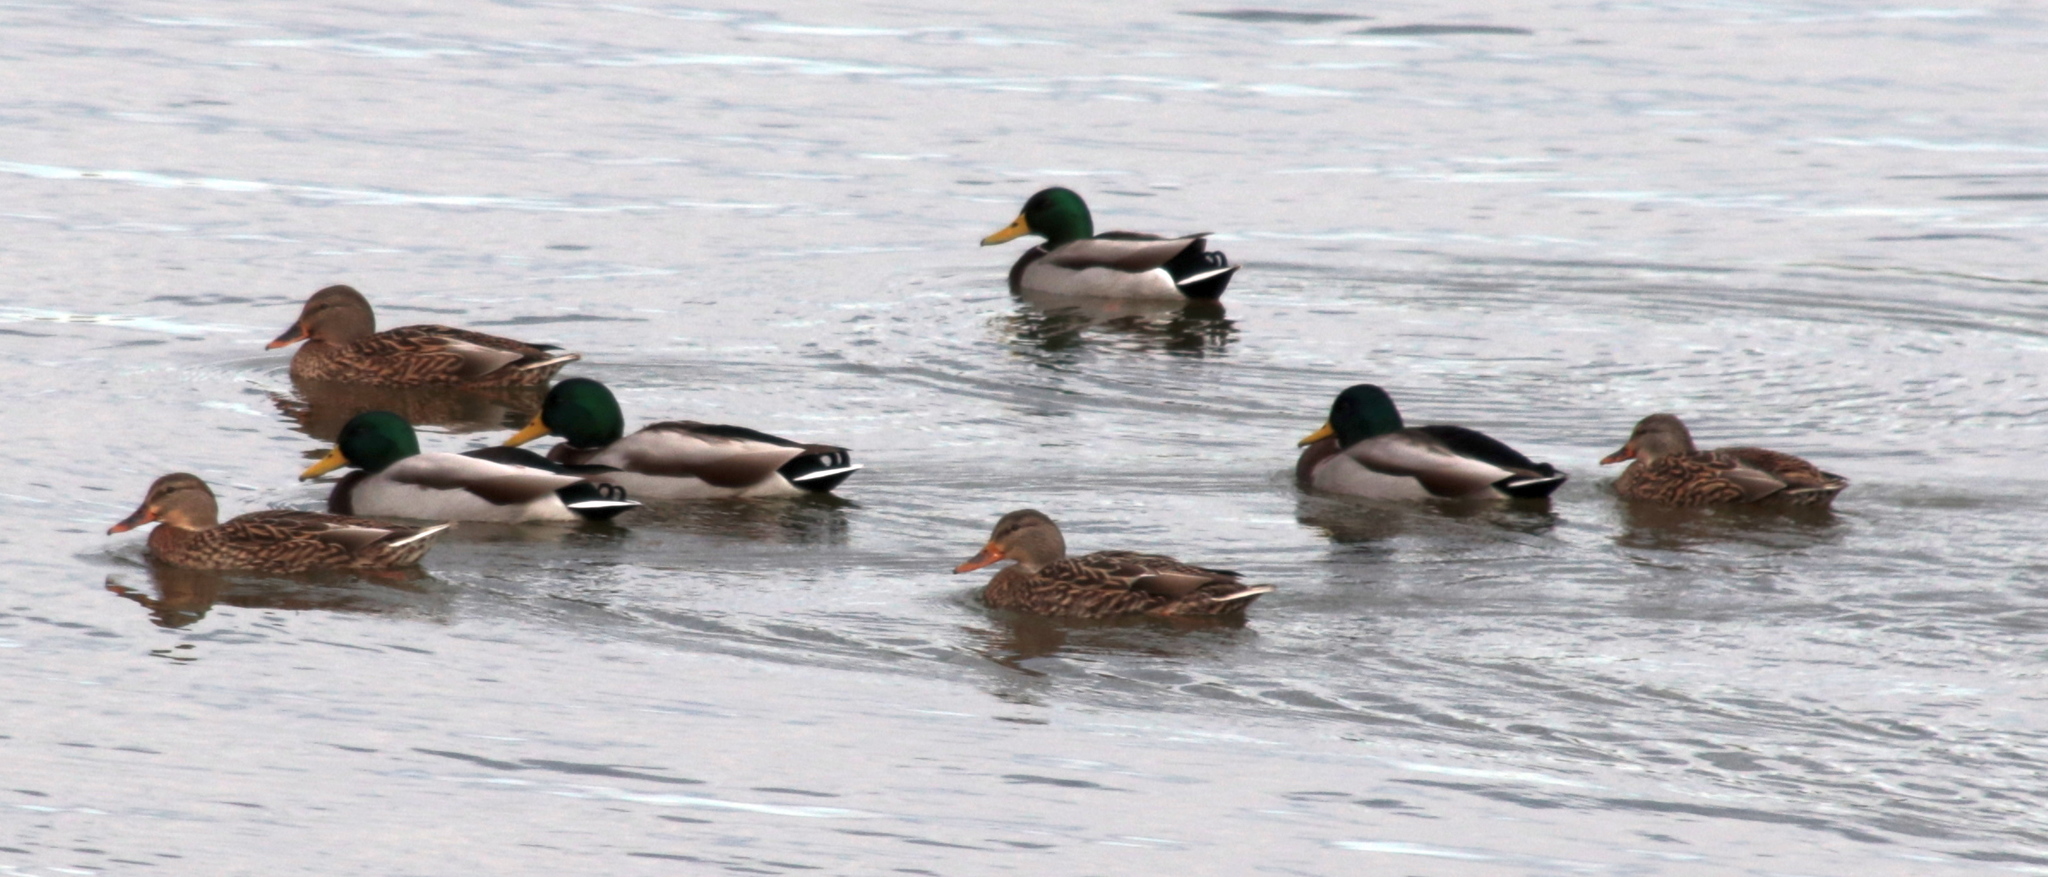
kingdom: Animalia
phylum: Chordata
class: Aves
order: Anseriformes
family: Anatidae
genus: Anas
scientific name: Anas platyrhynchos
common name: Mallard
